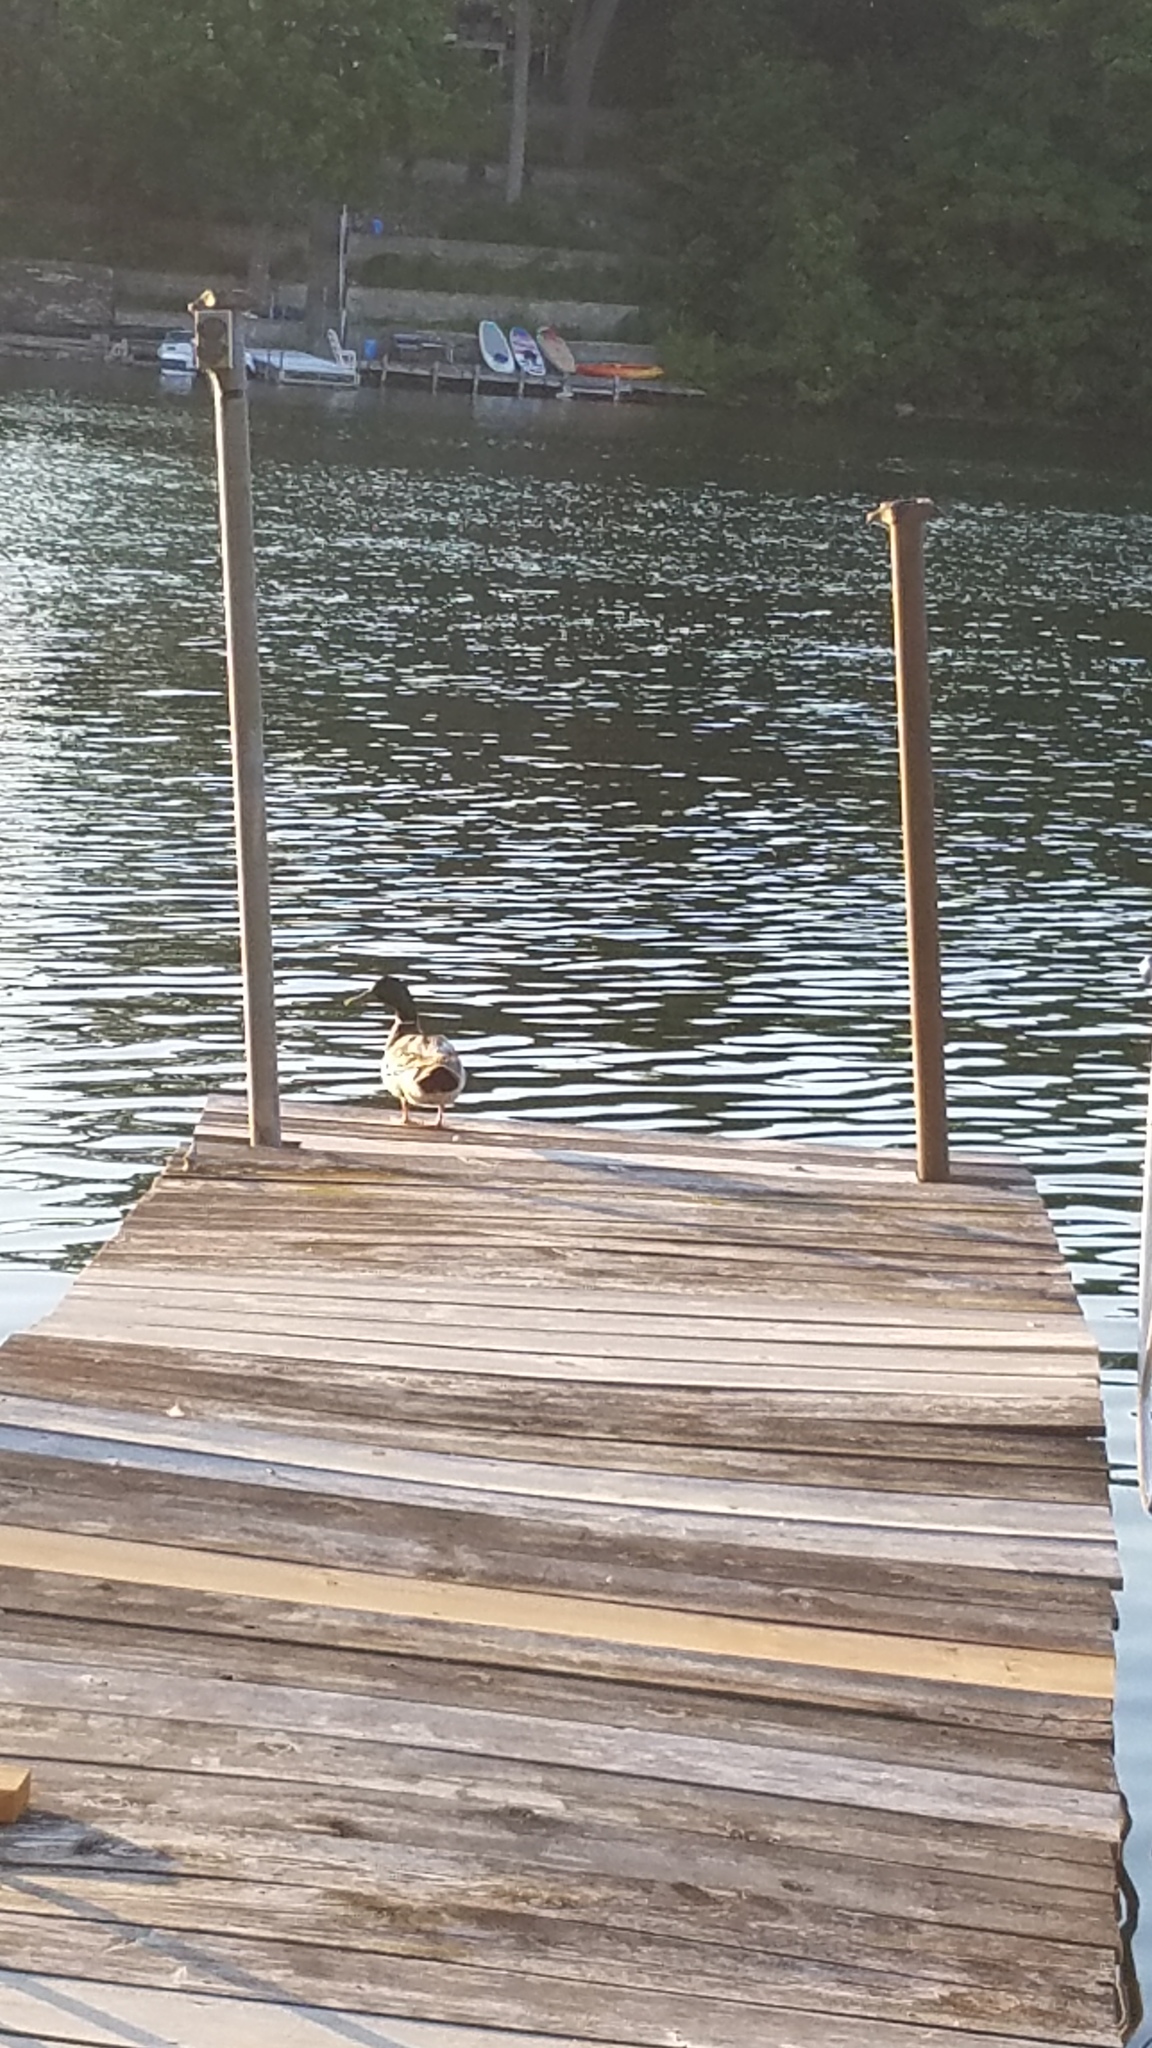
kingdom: Animalia
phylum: Chordata
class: Aves
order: Anseriformes
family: Anatidae
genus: Anas
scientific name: Anas platyrhynchos
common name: Mallard
